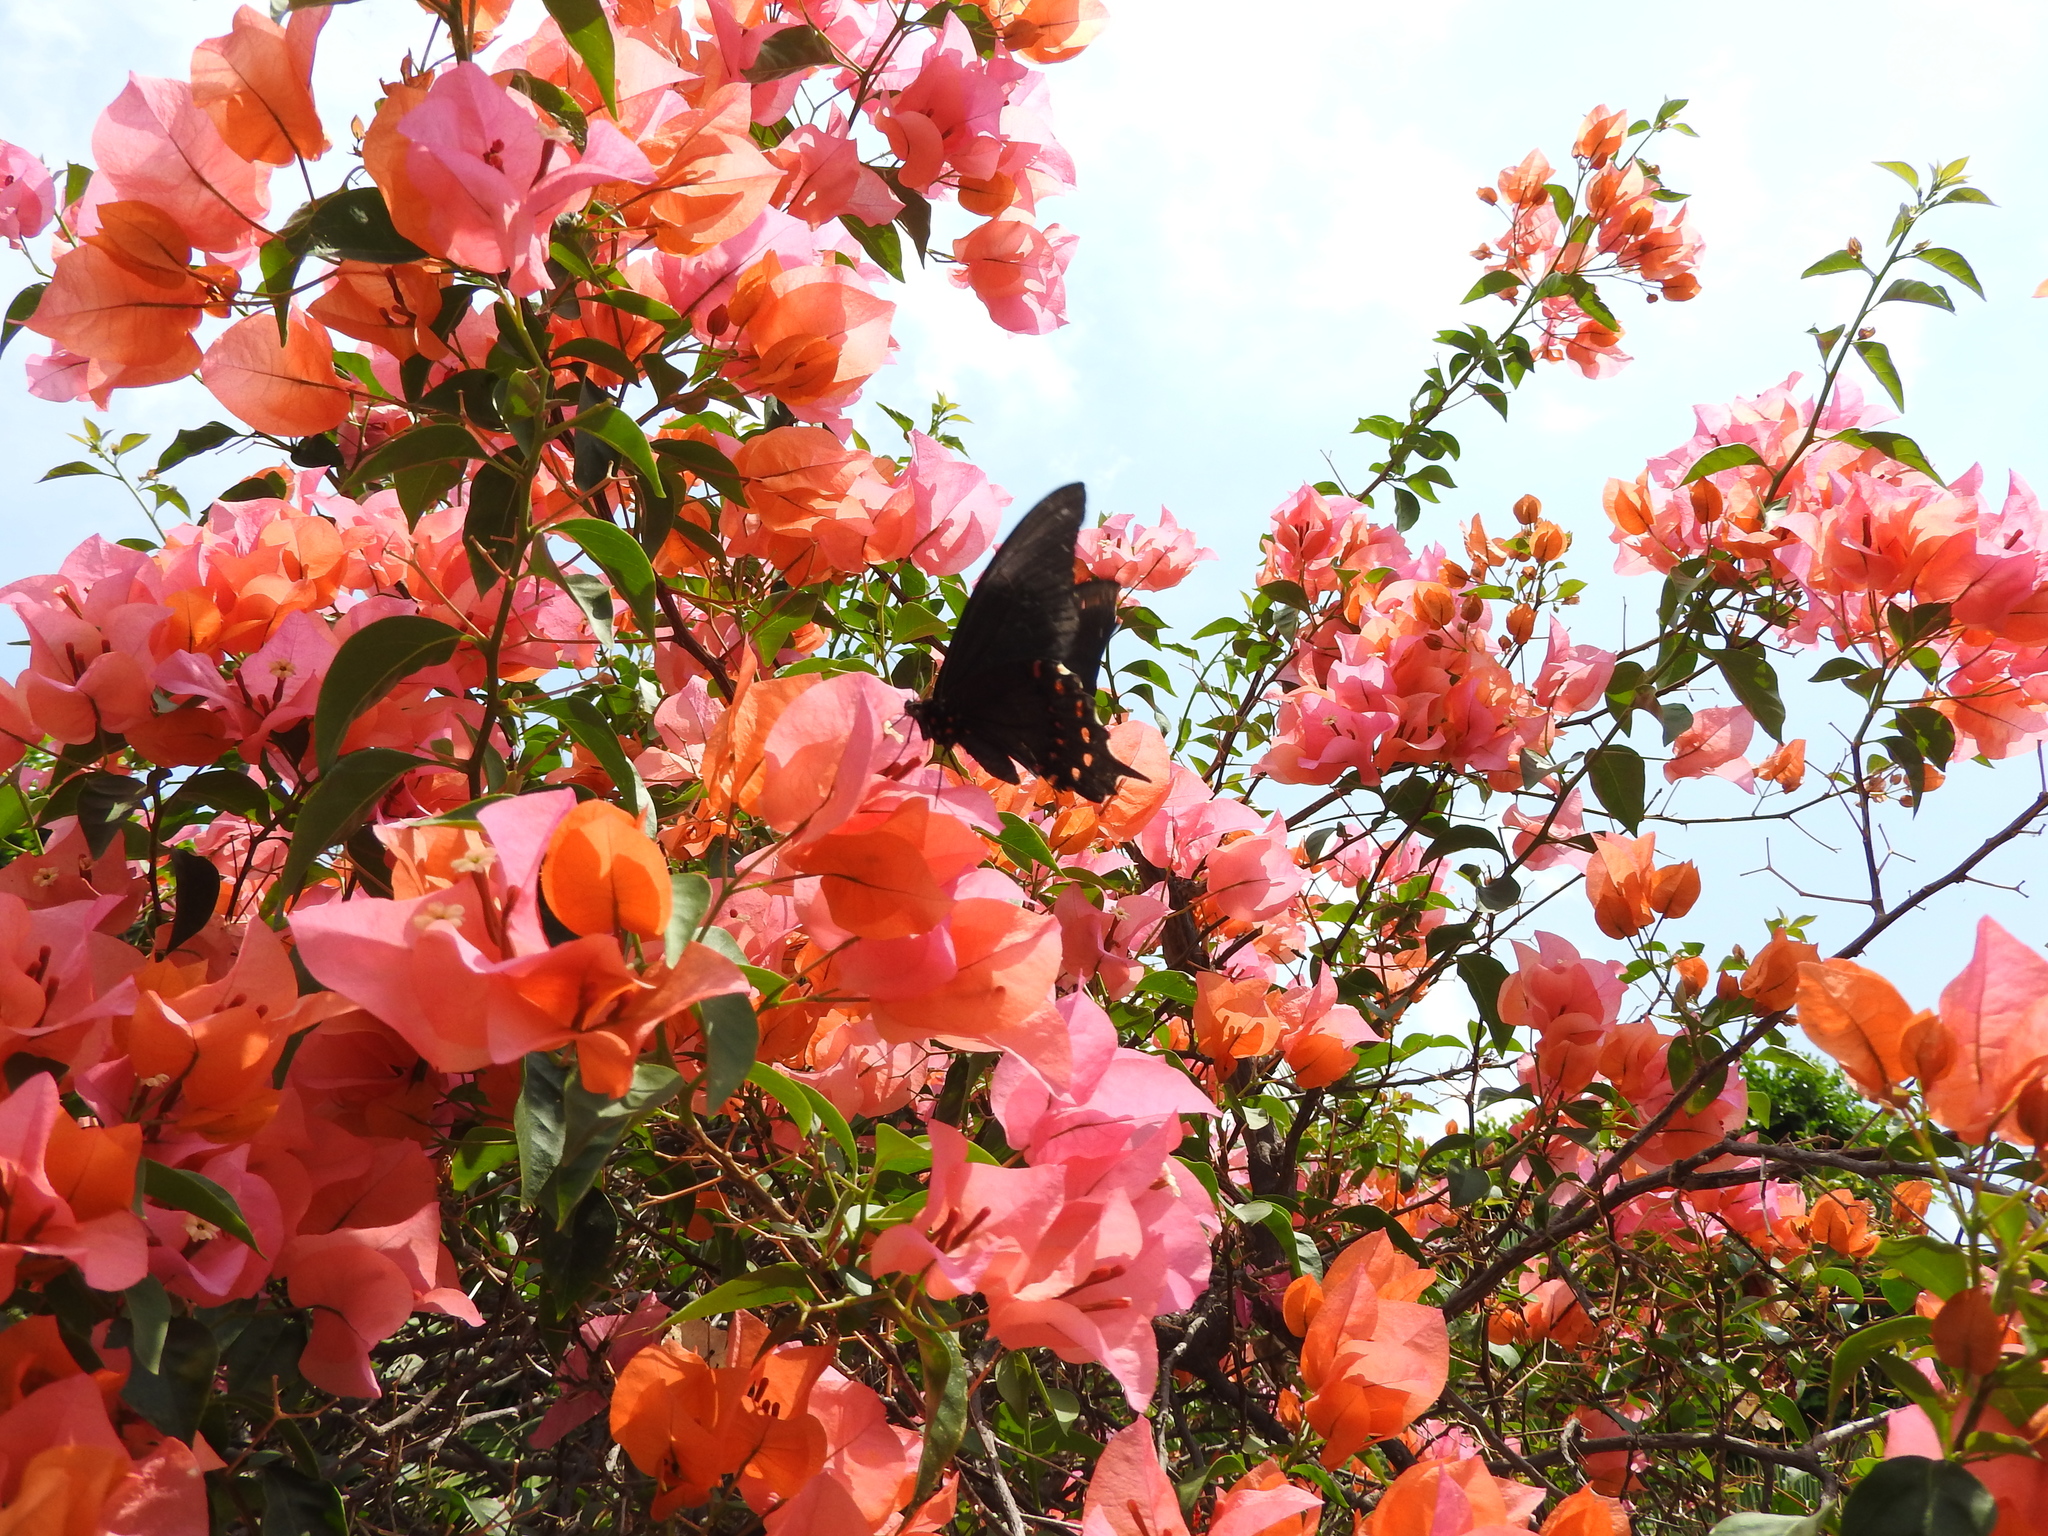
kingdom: Animalia
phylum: Arthropoda
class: Insecta
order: Lepidoptera
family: Papilionidae
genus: Heraclides
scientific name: Heraclides rogeri
